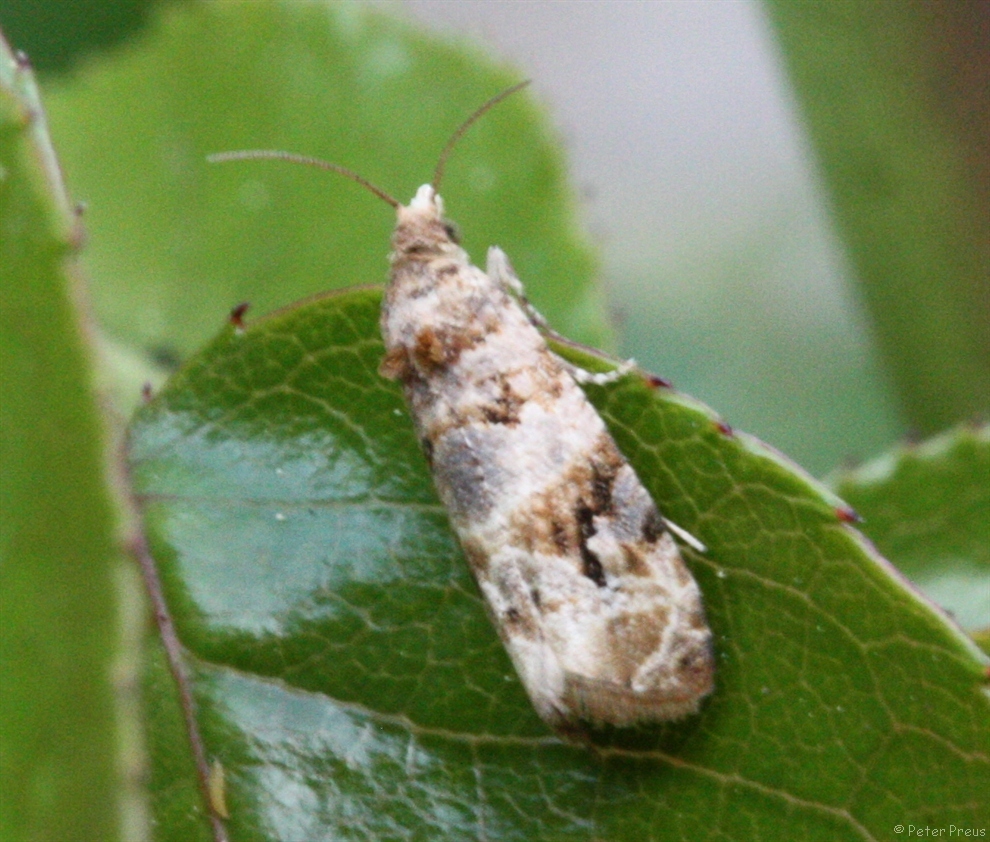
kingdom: Animalia
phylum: Arthropoda
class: Insecta
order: Lepidoptera
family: Tortricidae
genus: Lobesia
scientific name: Lobesia botrana
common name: European vine moth
